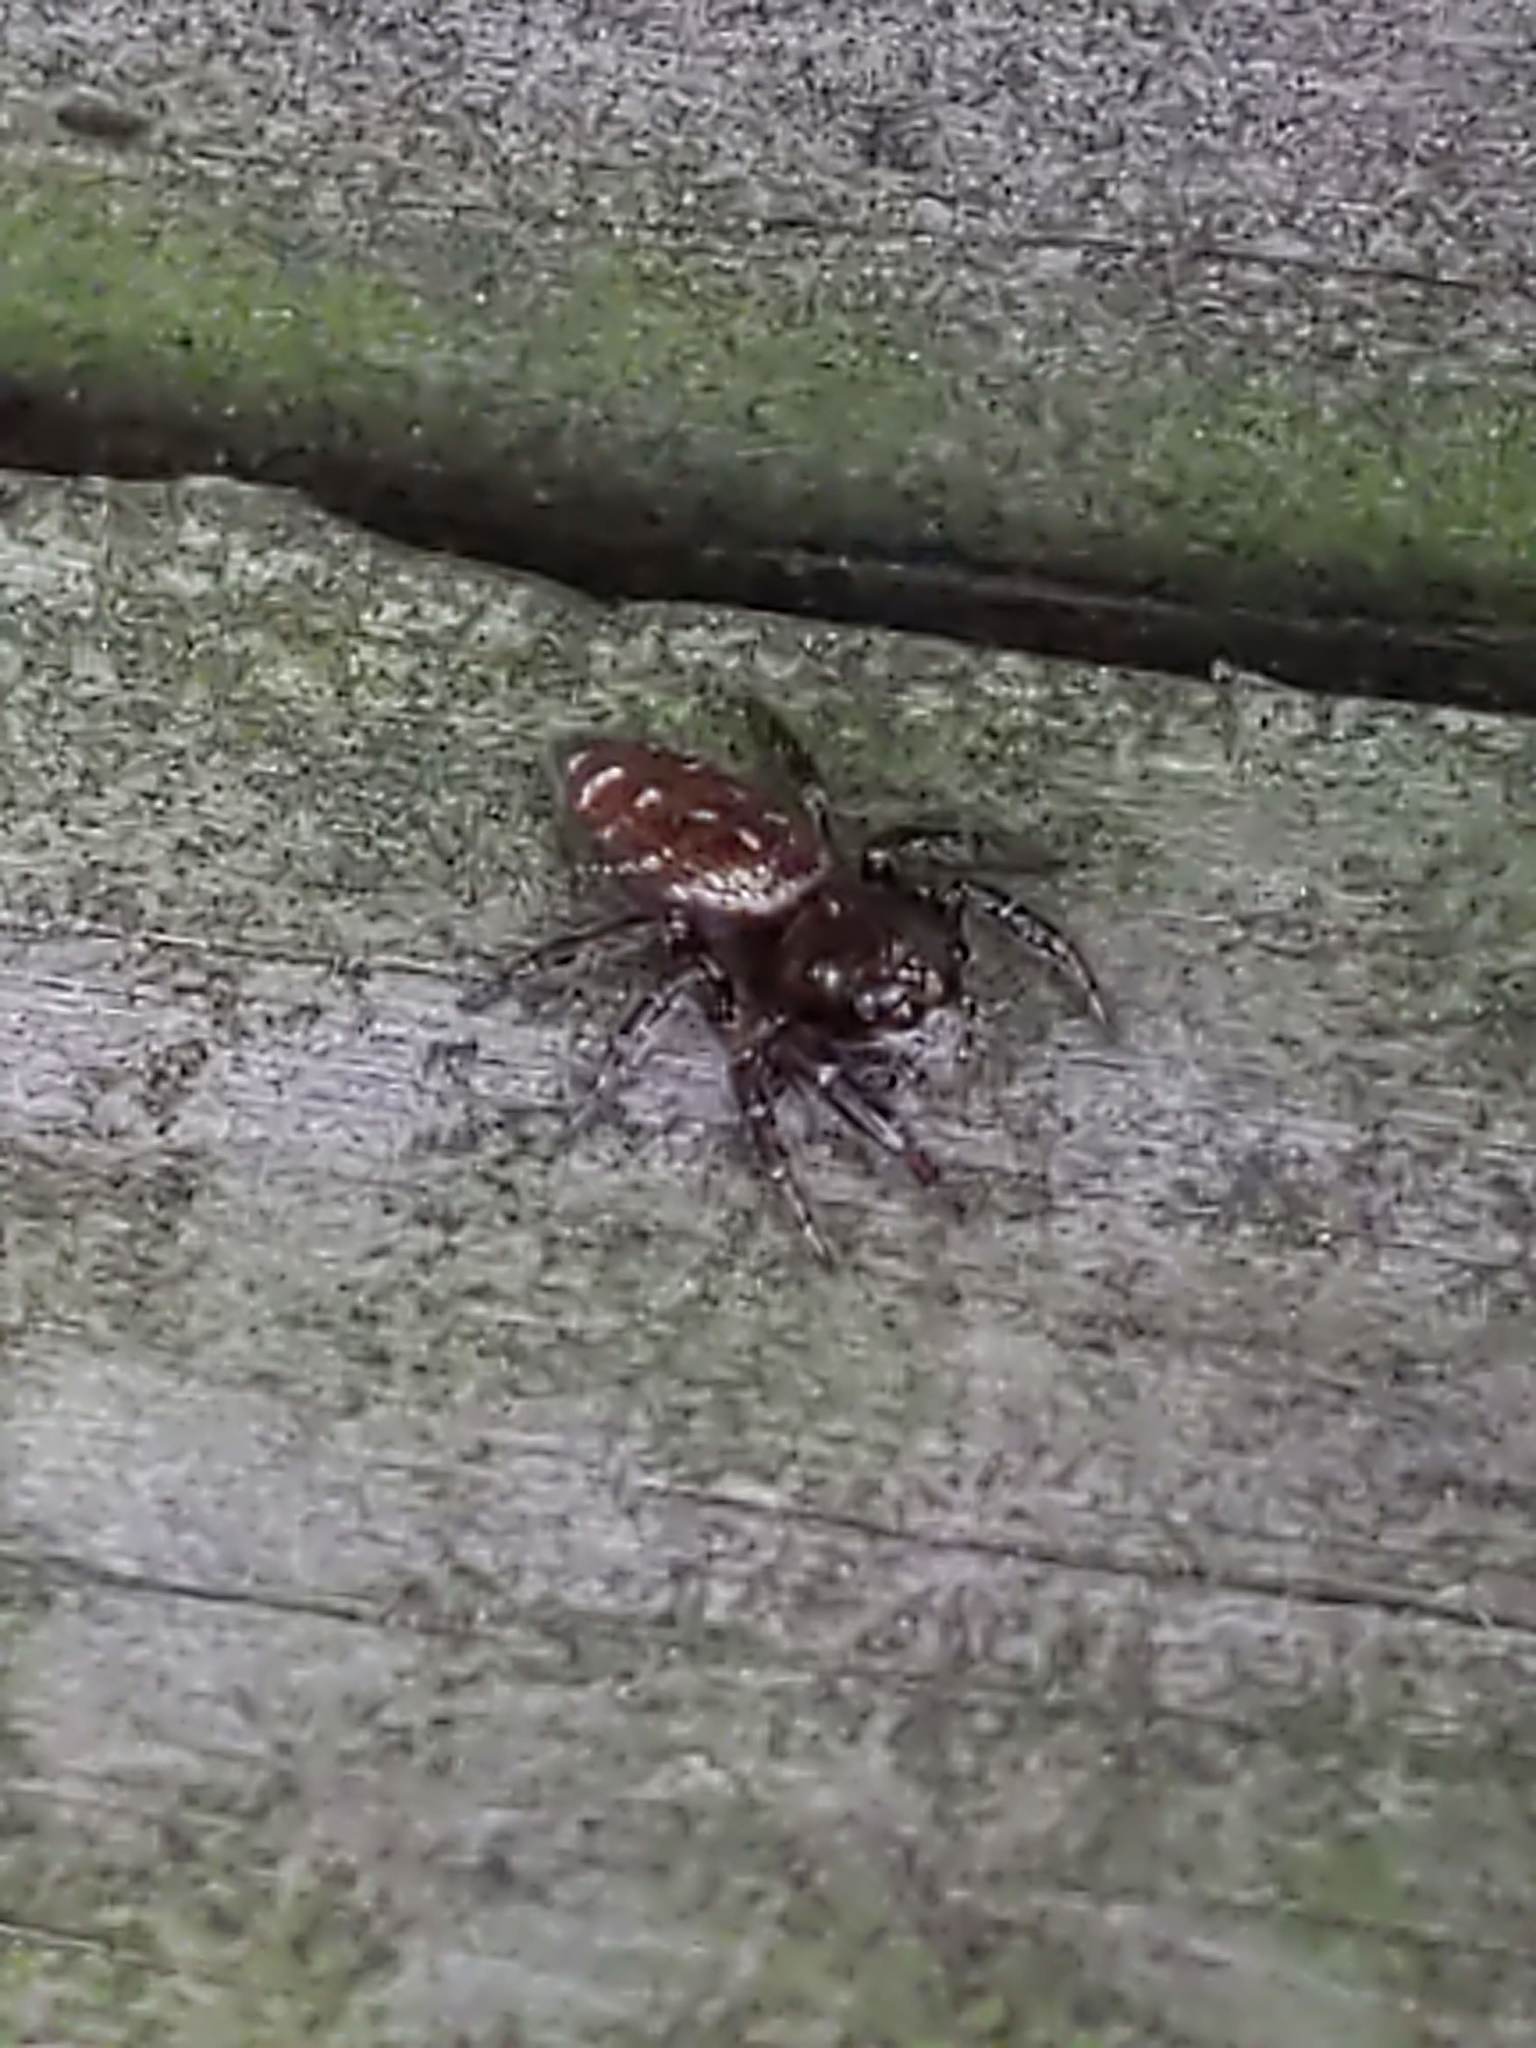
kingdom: Animalia
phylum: Arthropoda
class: Arachnida
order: Araneae
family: Salticidae
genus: Eris
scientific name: Eris militaris
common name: Bronze jumper
